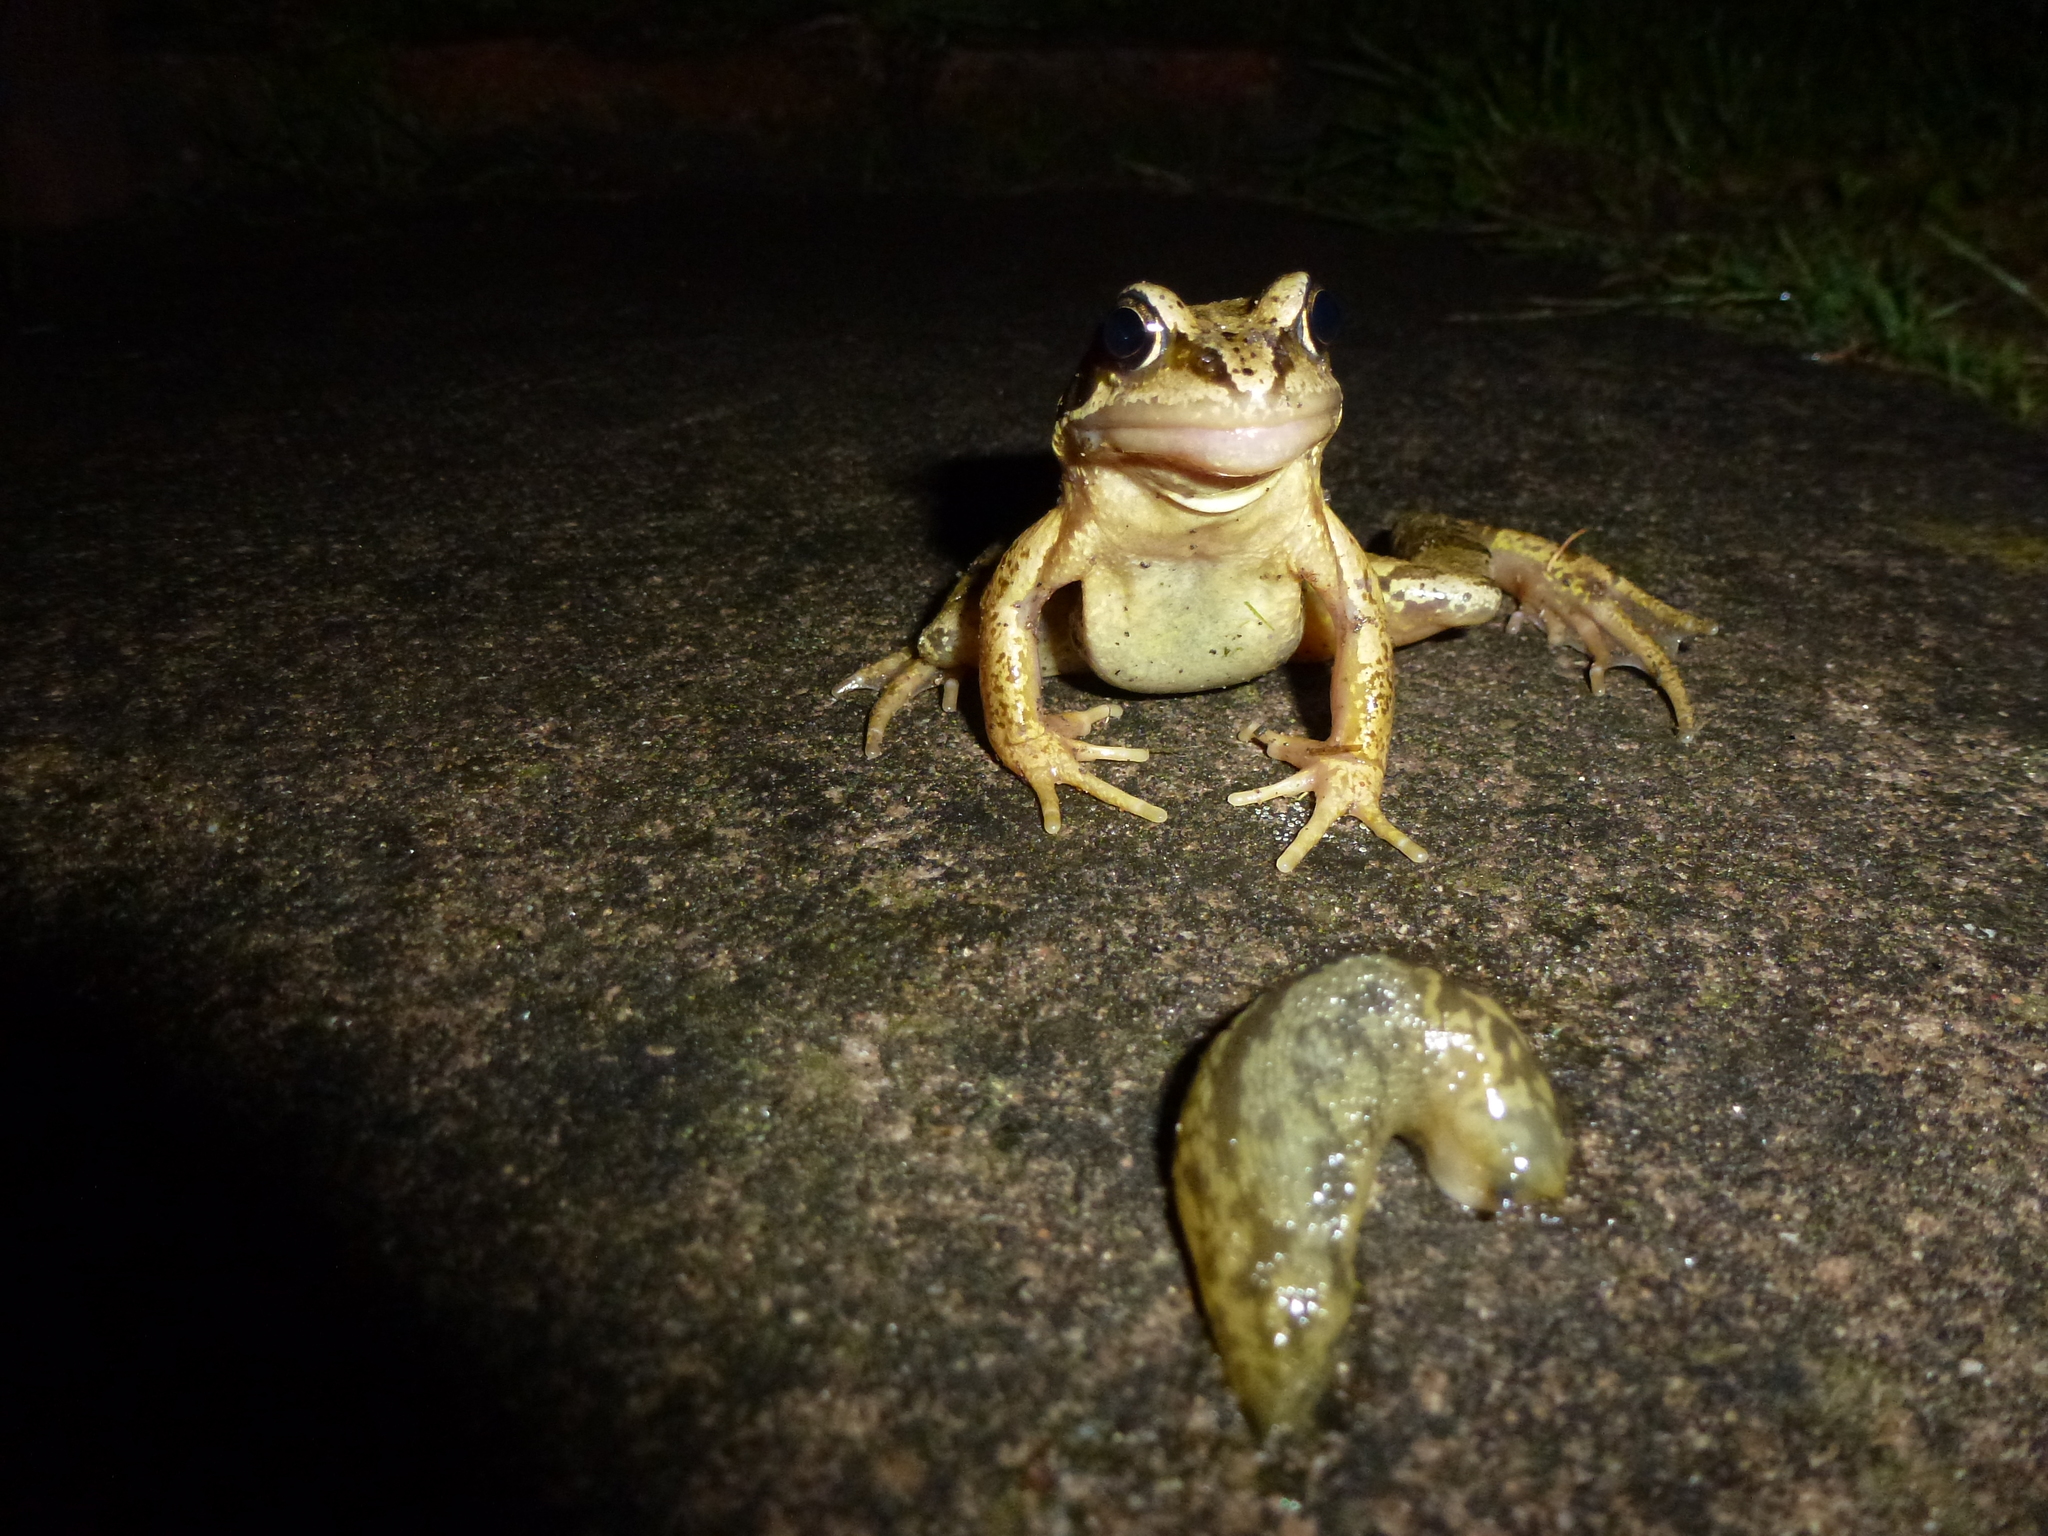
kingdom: Animalia
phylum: Chordata
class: Amphibia
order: Anura
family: Ranidae
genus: Rana
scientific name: Rana temporaria
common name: Common frog
